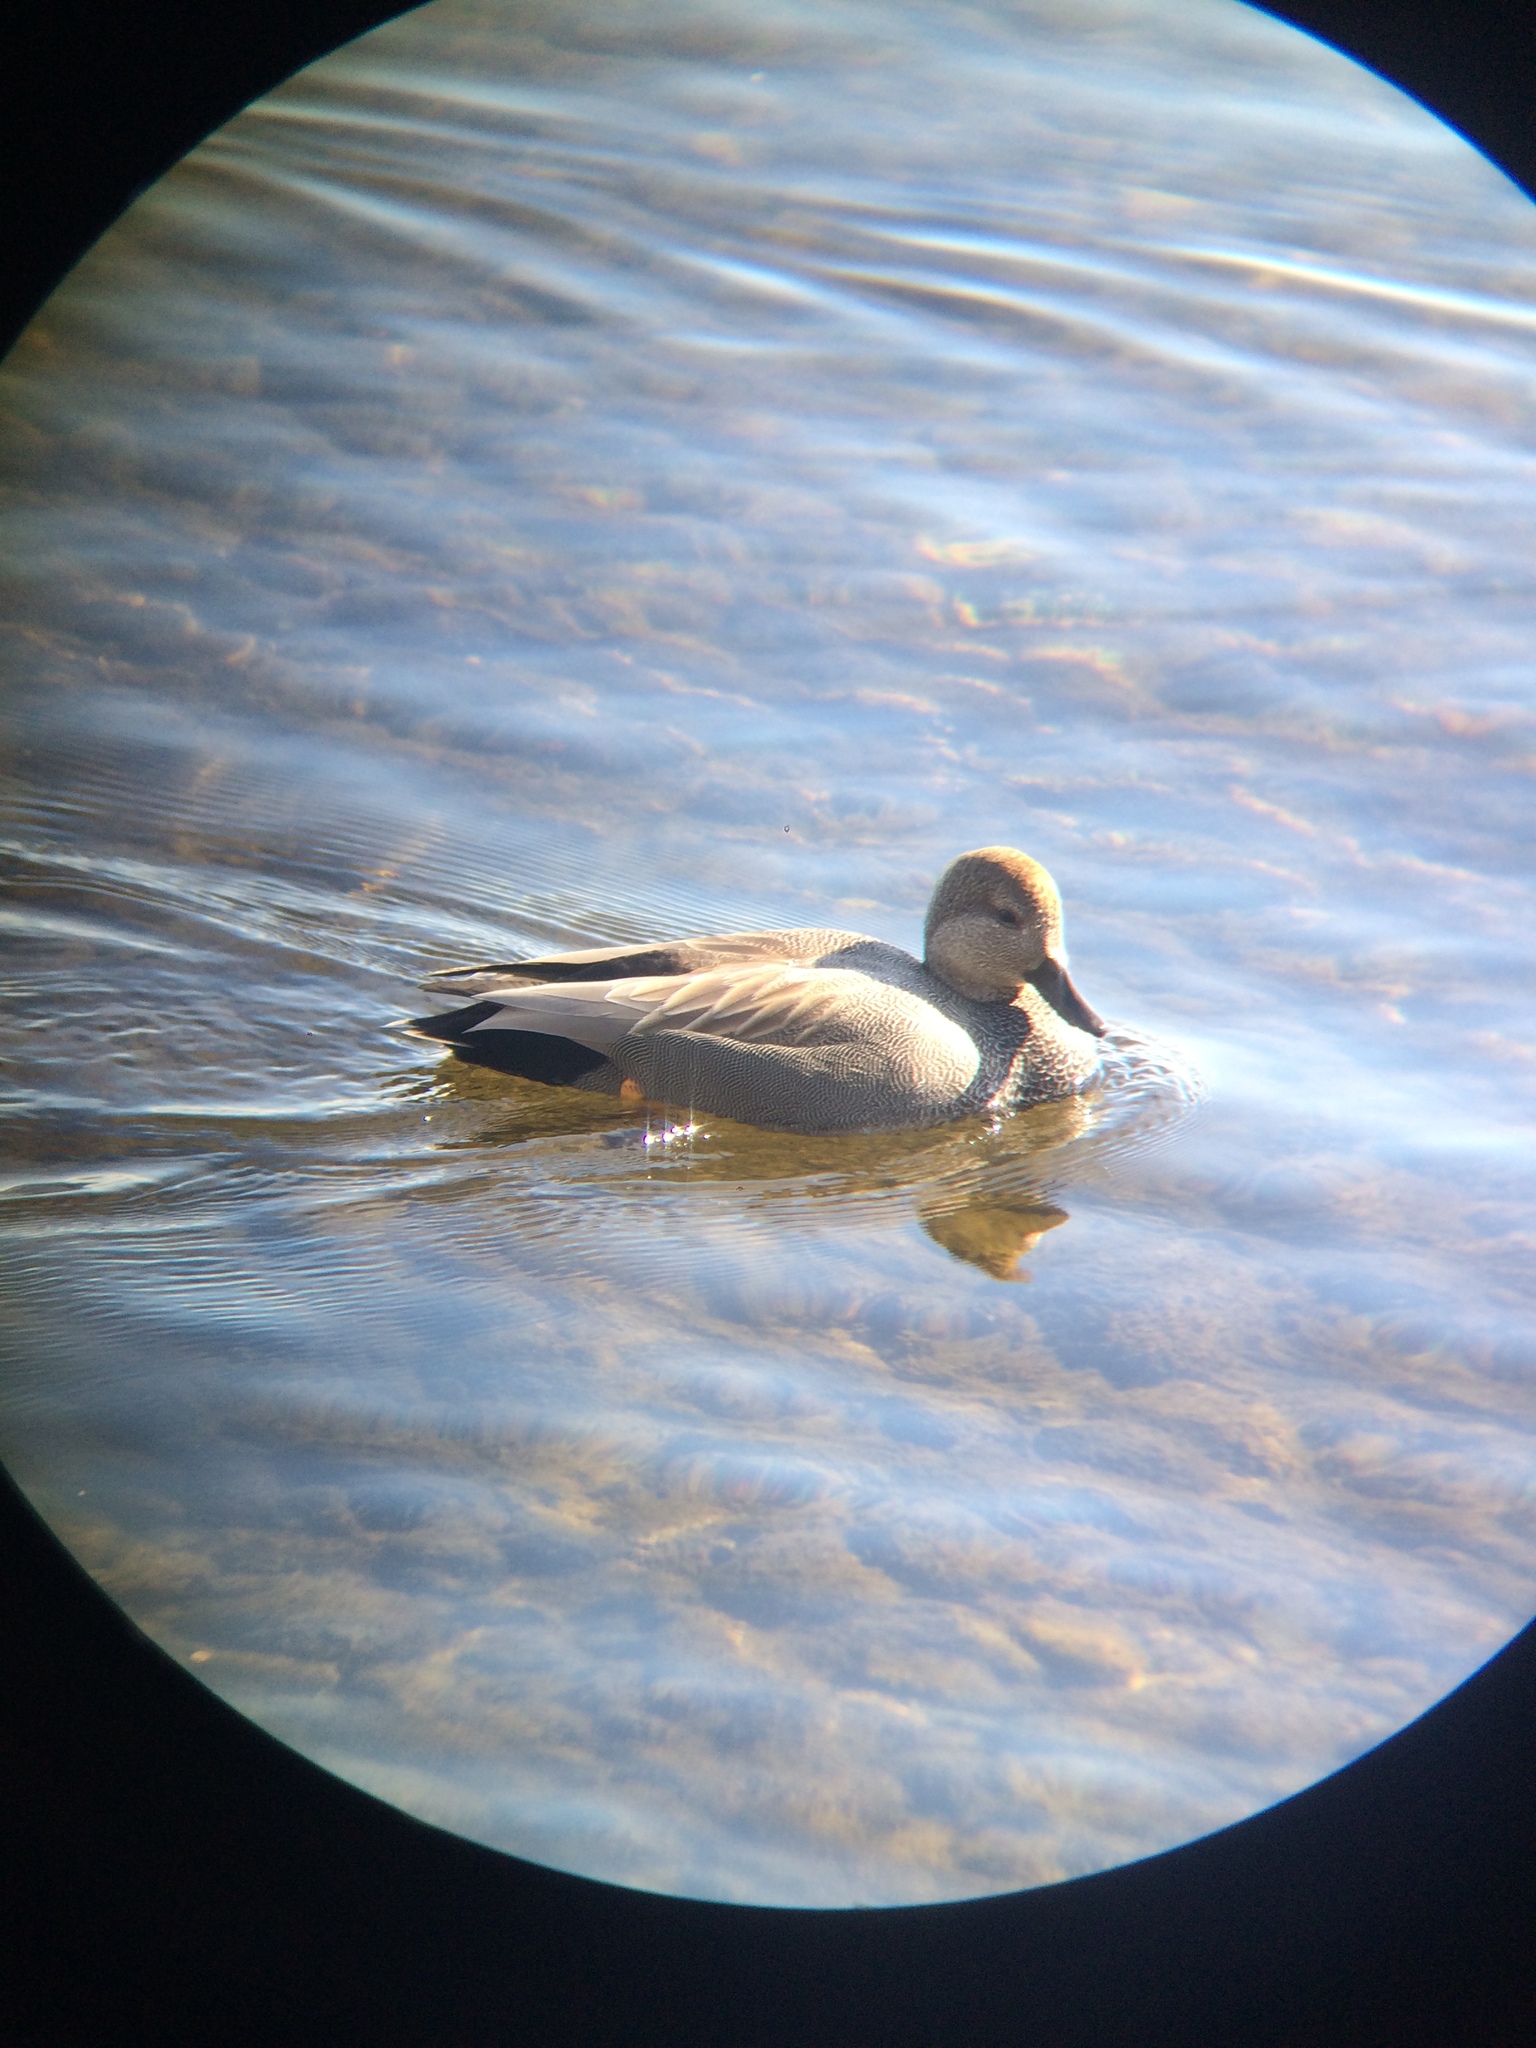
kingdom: Animalia
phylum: Chordata
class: Aves
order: Anseriformes
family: Anatidae
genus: Mareca
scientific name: Mareca strepera
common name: Gadwall
